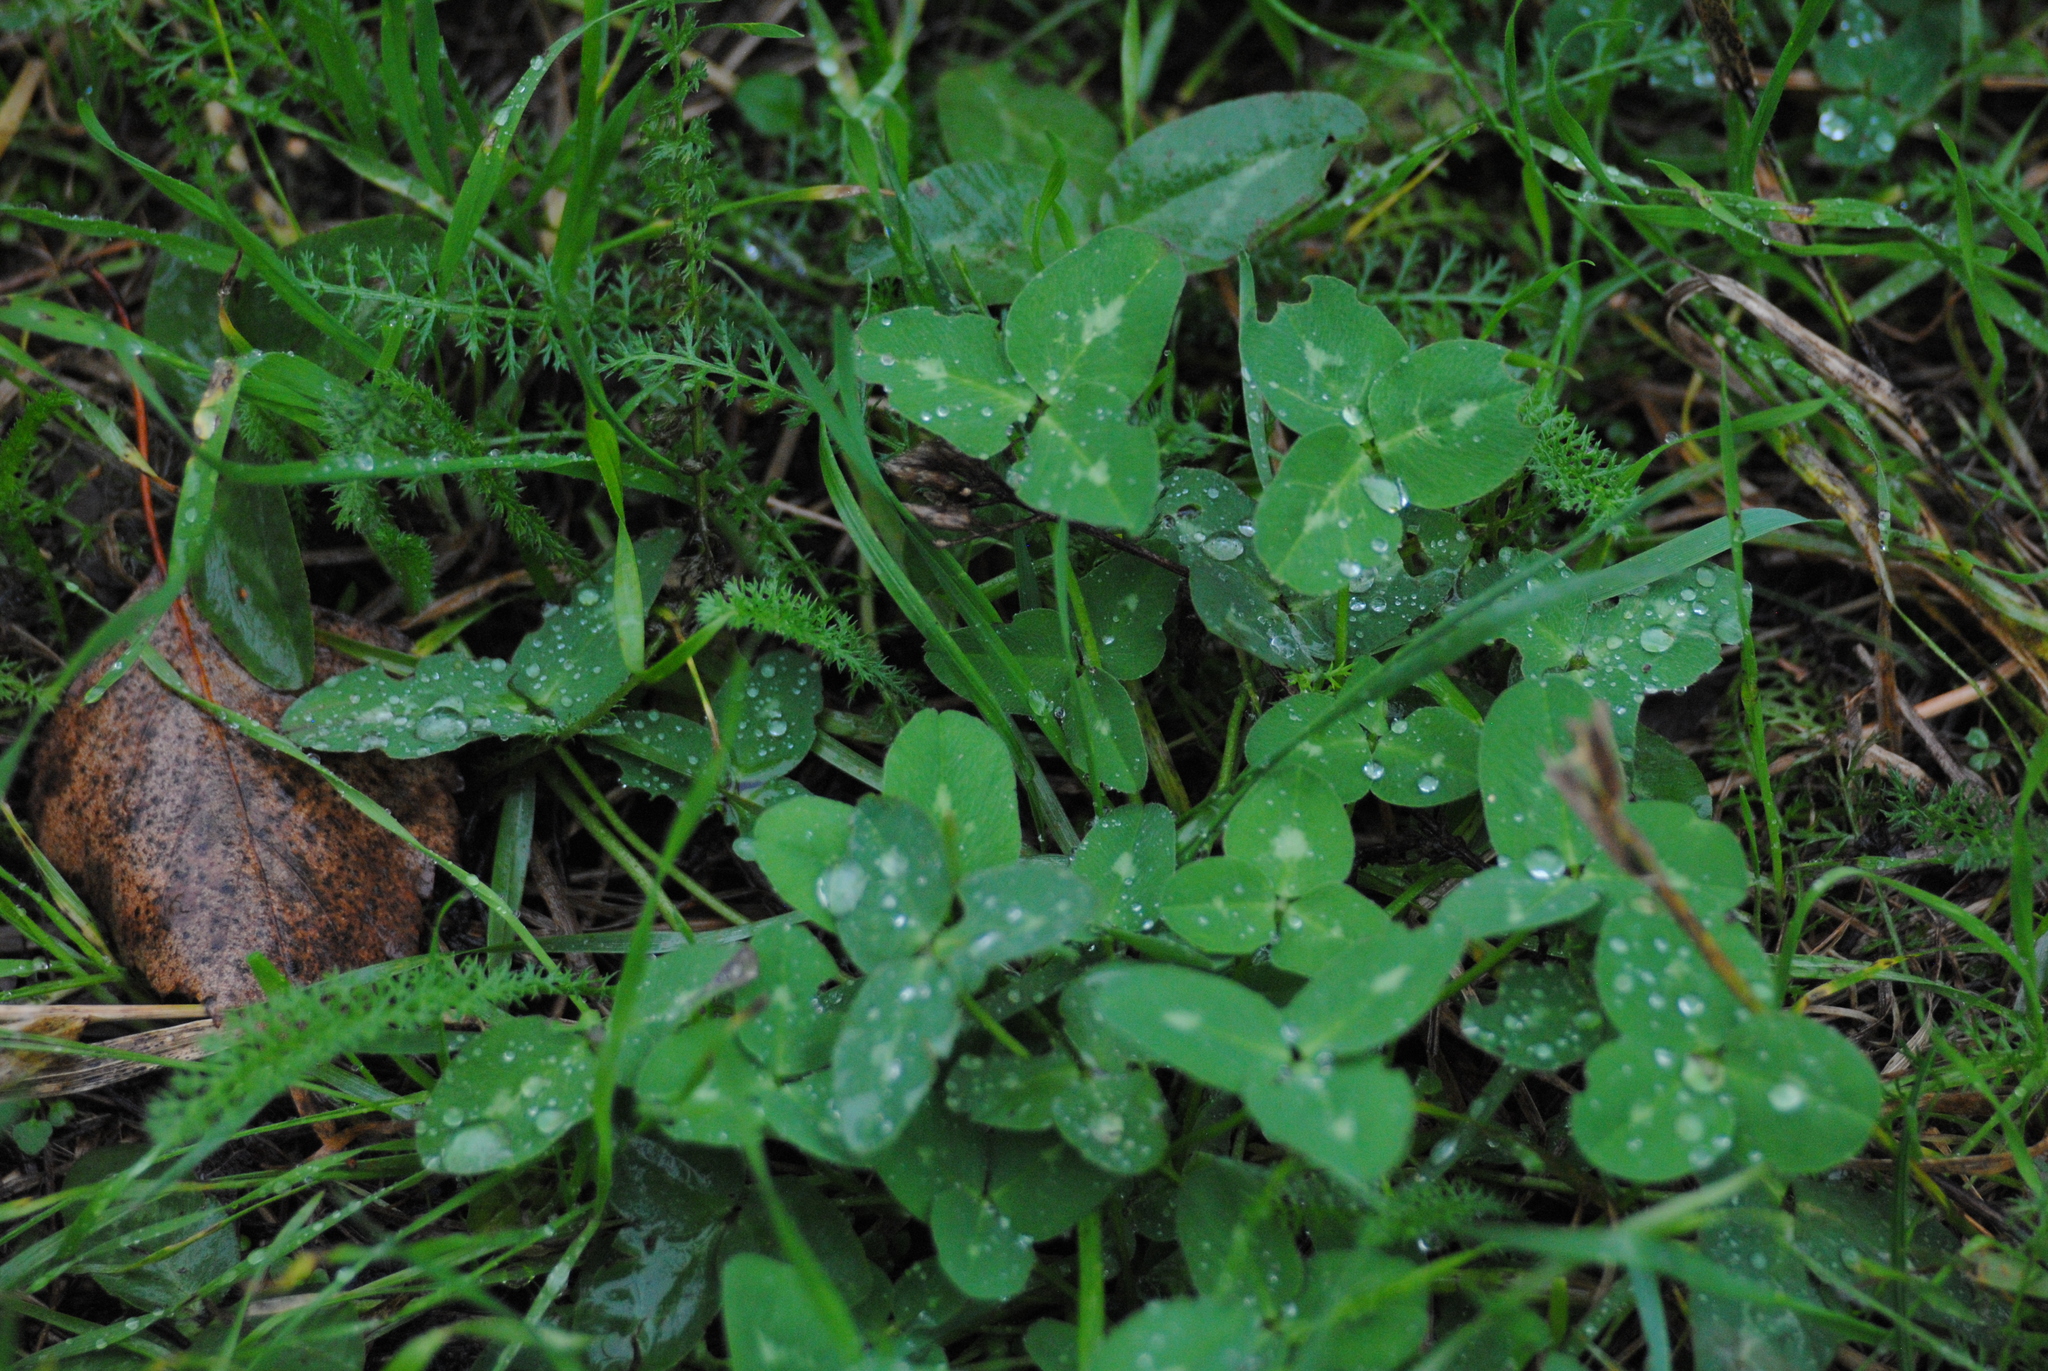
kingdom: Plantae
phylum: Tracheophyta
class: Magnoliopsida
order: Fabales
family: Fabaceae
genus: Trifolium
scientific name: Trifolium pratense
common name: Red clover
